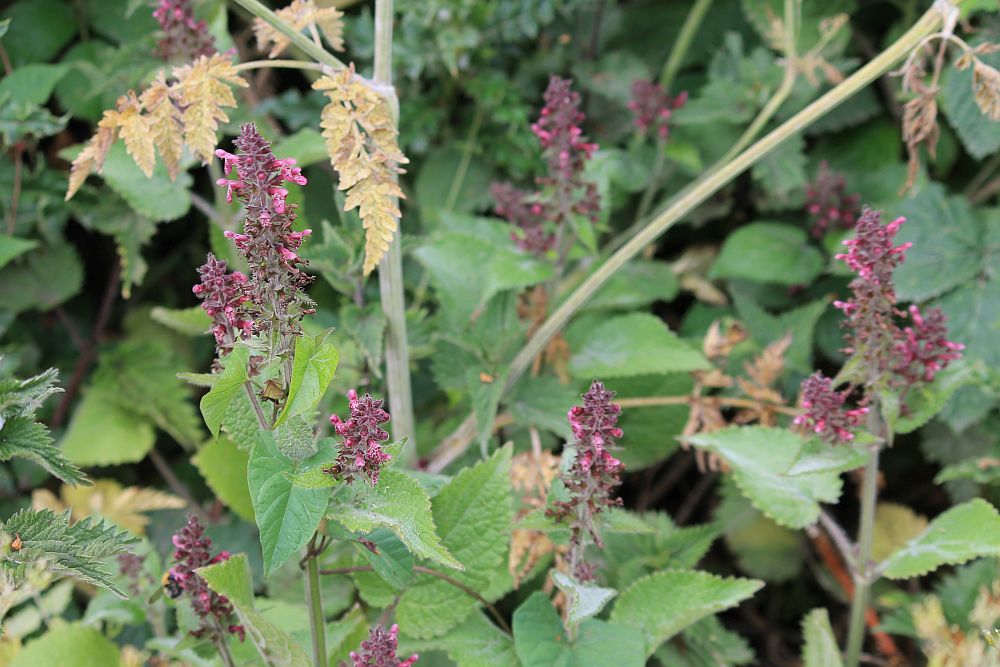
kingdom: Plantae
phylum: Tracheophyta
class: Magnoliopsida
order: Lamiales
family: Lamiaceae
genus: Stachys
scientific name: Stachys sylvatica
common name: Hedge woundwort
